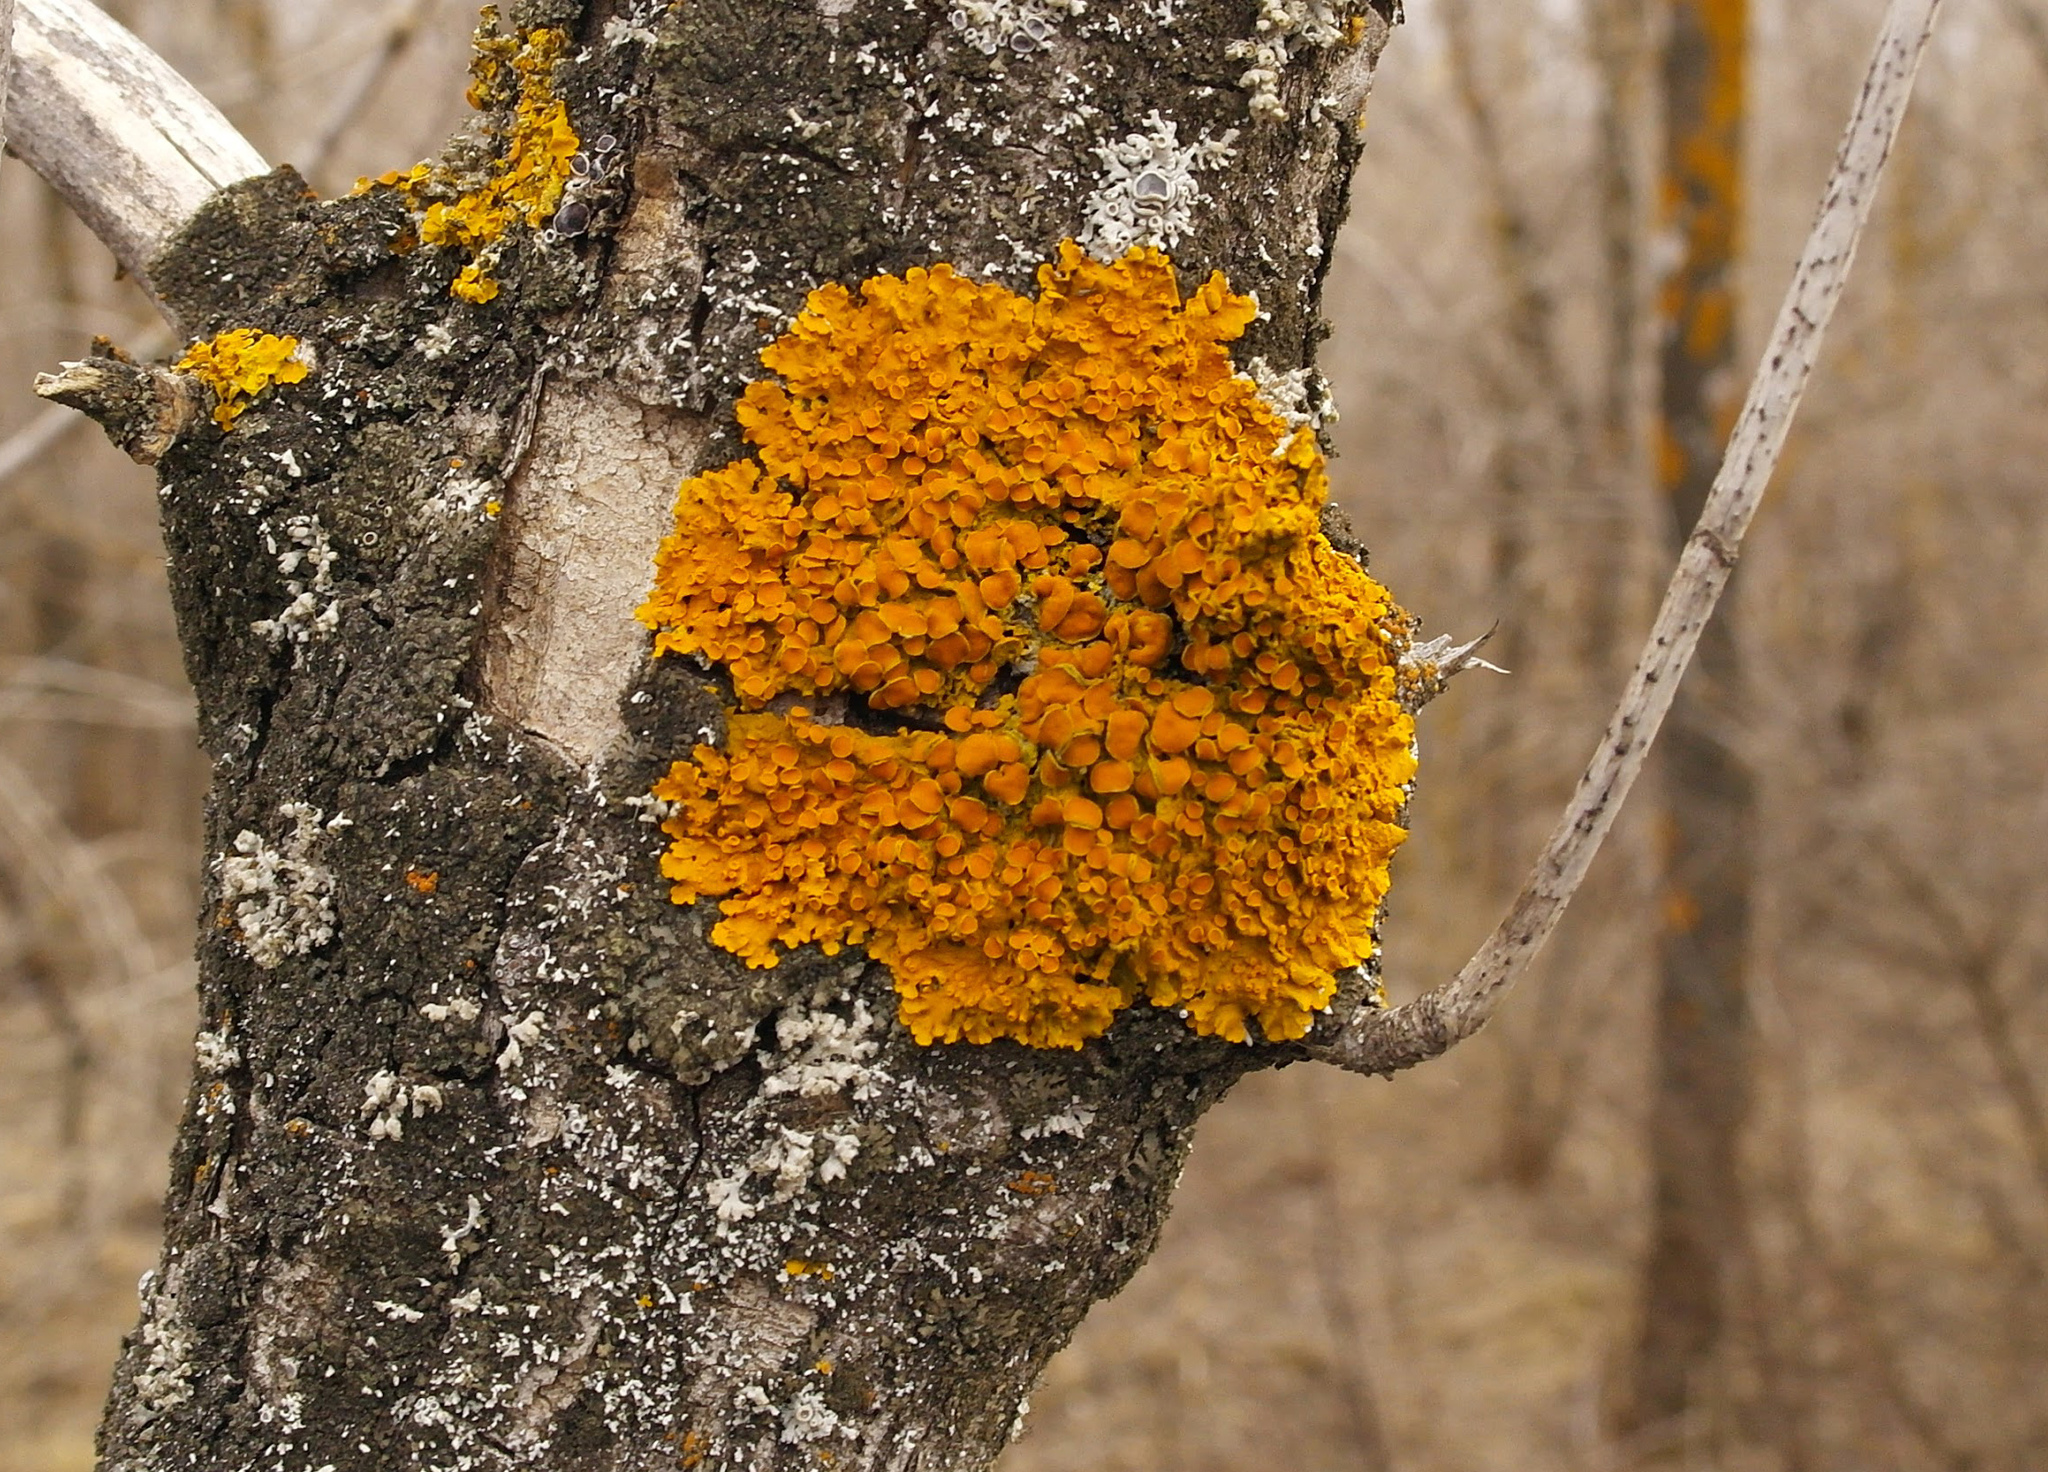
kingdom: Fungi
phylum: Ascomycota
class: Lecanoromycetes
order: Teloschistales
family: Teloschistaceae
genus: Xanthoria
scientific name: Xanthoria parietina
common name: Common orange lichen
